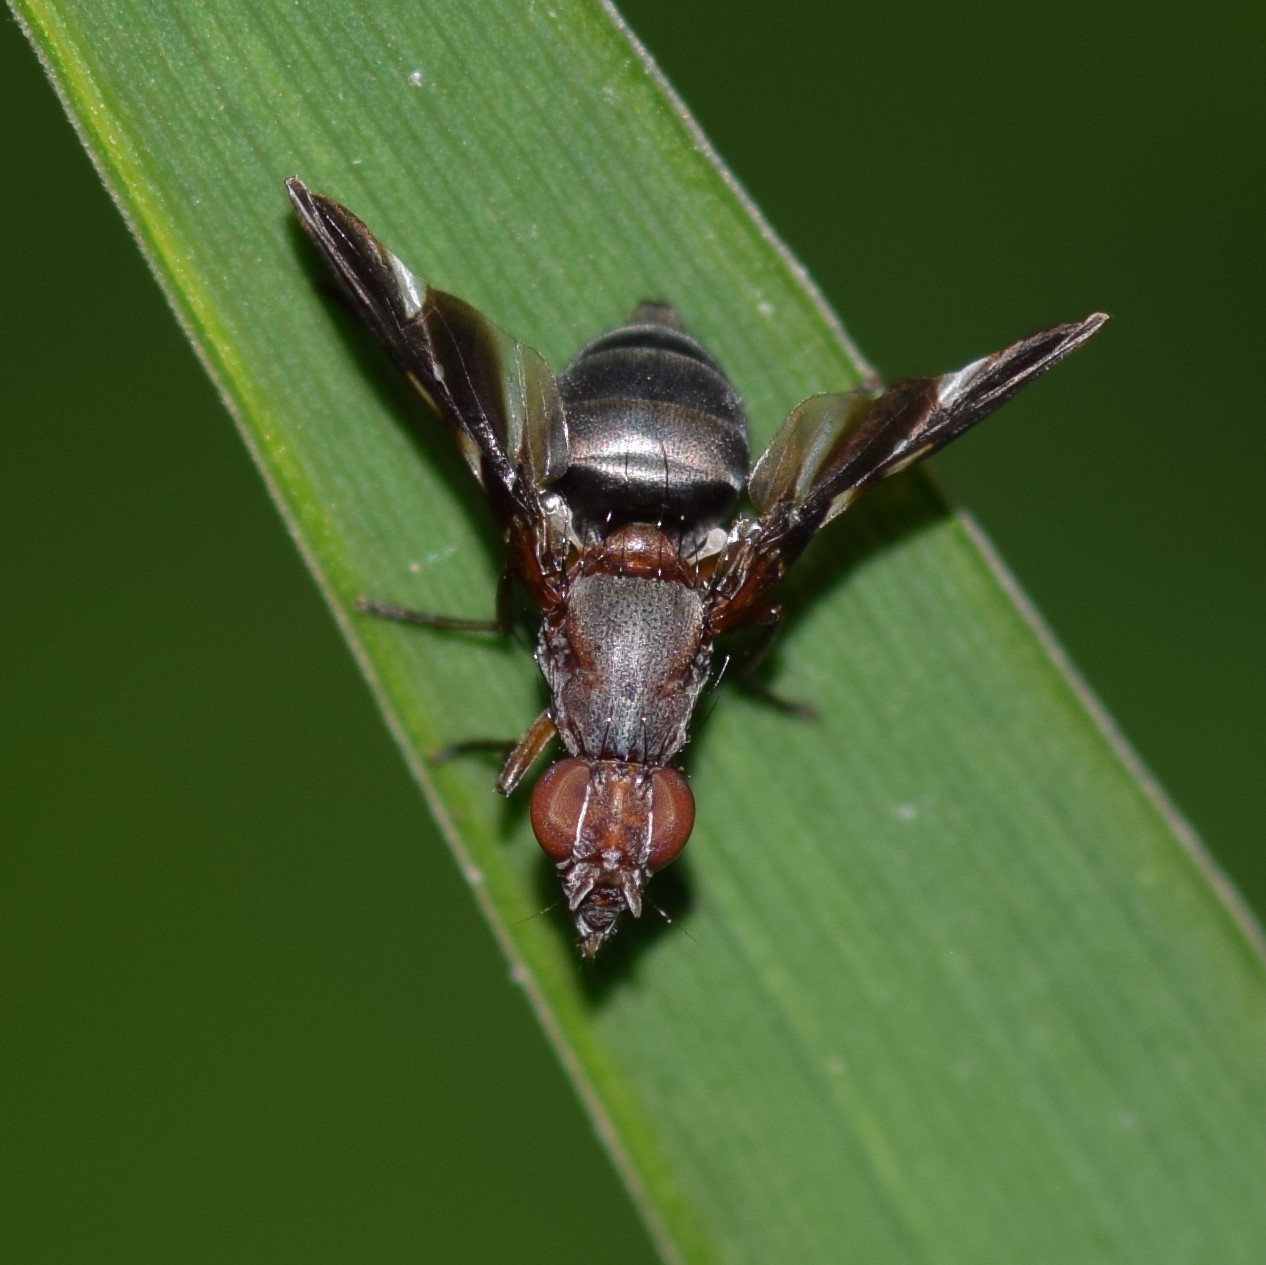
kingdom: Animalia
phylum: Arthropoda
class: Insecta
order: Diptera
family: Ulidiidae
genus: Delphinia
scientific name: Delphinia picta
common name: Common picture-winged fly
